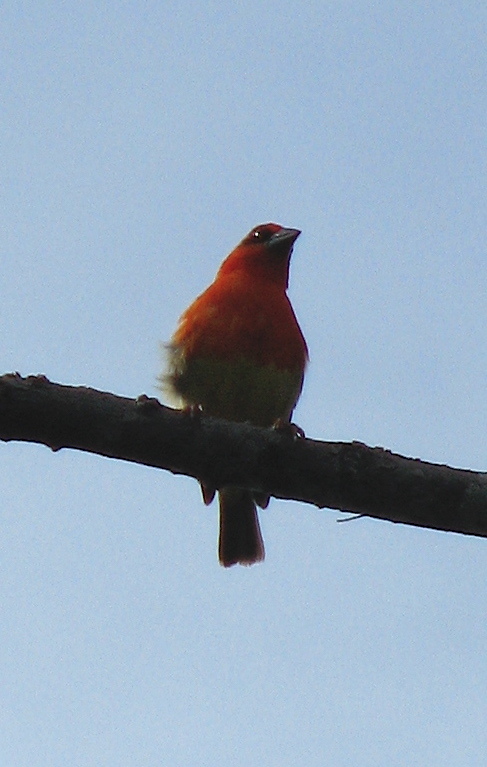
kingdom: Animalia
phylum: Chordata
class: Aves
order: Passeriformes
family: Ploceidae
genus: Foudia
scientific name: Foudia aldabrana
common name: Aldabra fody
